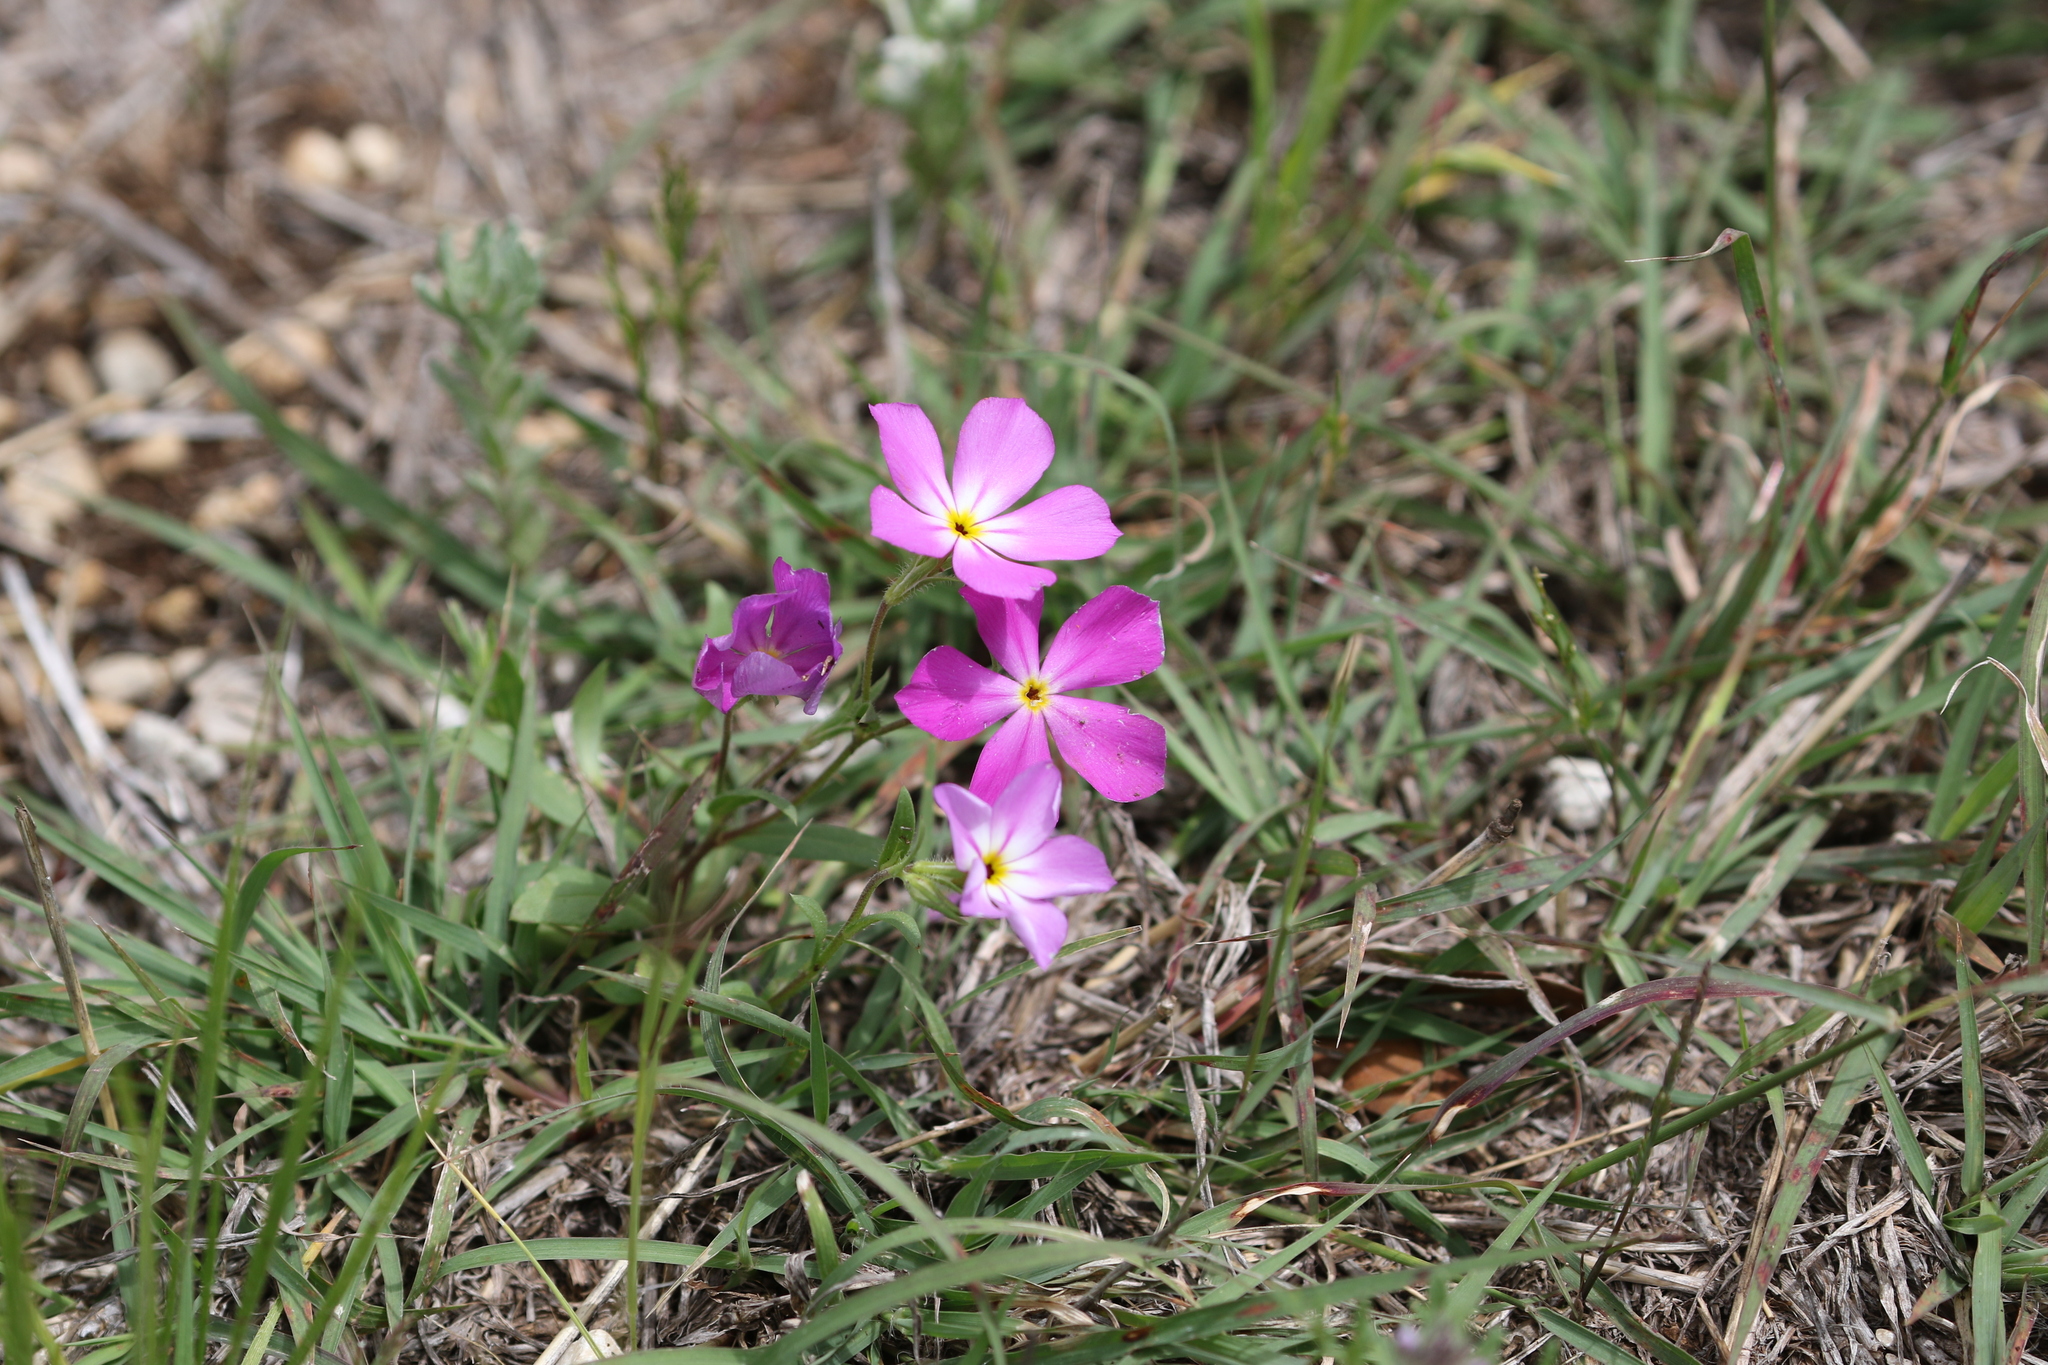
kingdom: Plantae
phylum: Tracheophyta
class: Magnoliopsida
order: Ericales
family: Polemoniaceae
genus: Phlox
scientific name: Phlox roemeriana
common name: Roemer's phlox
